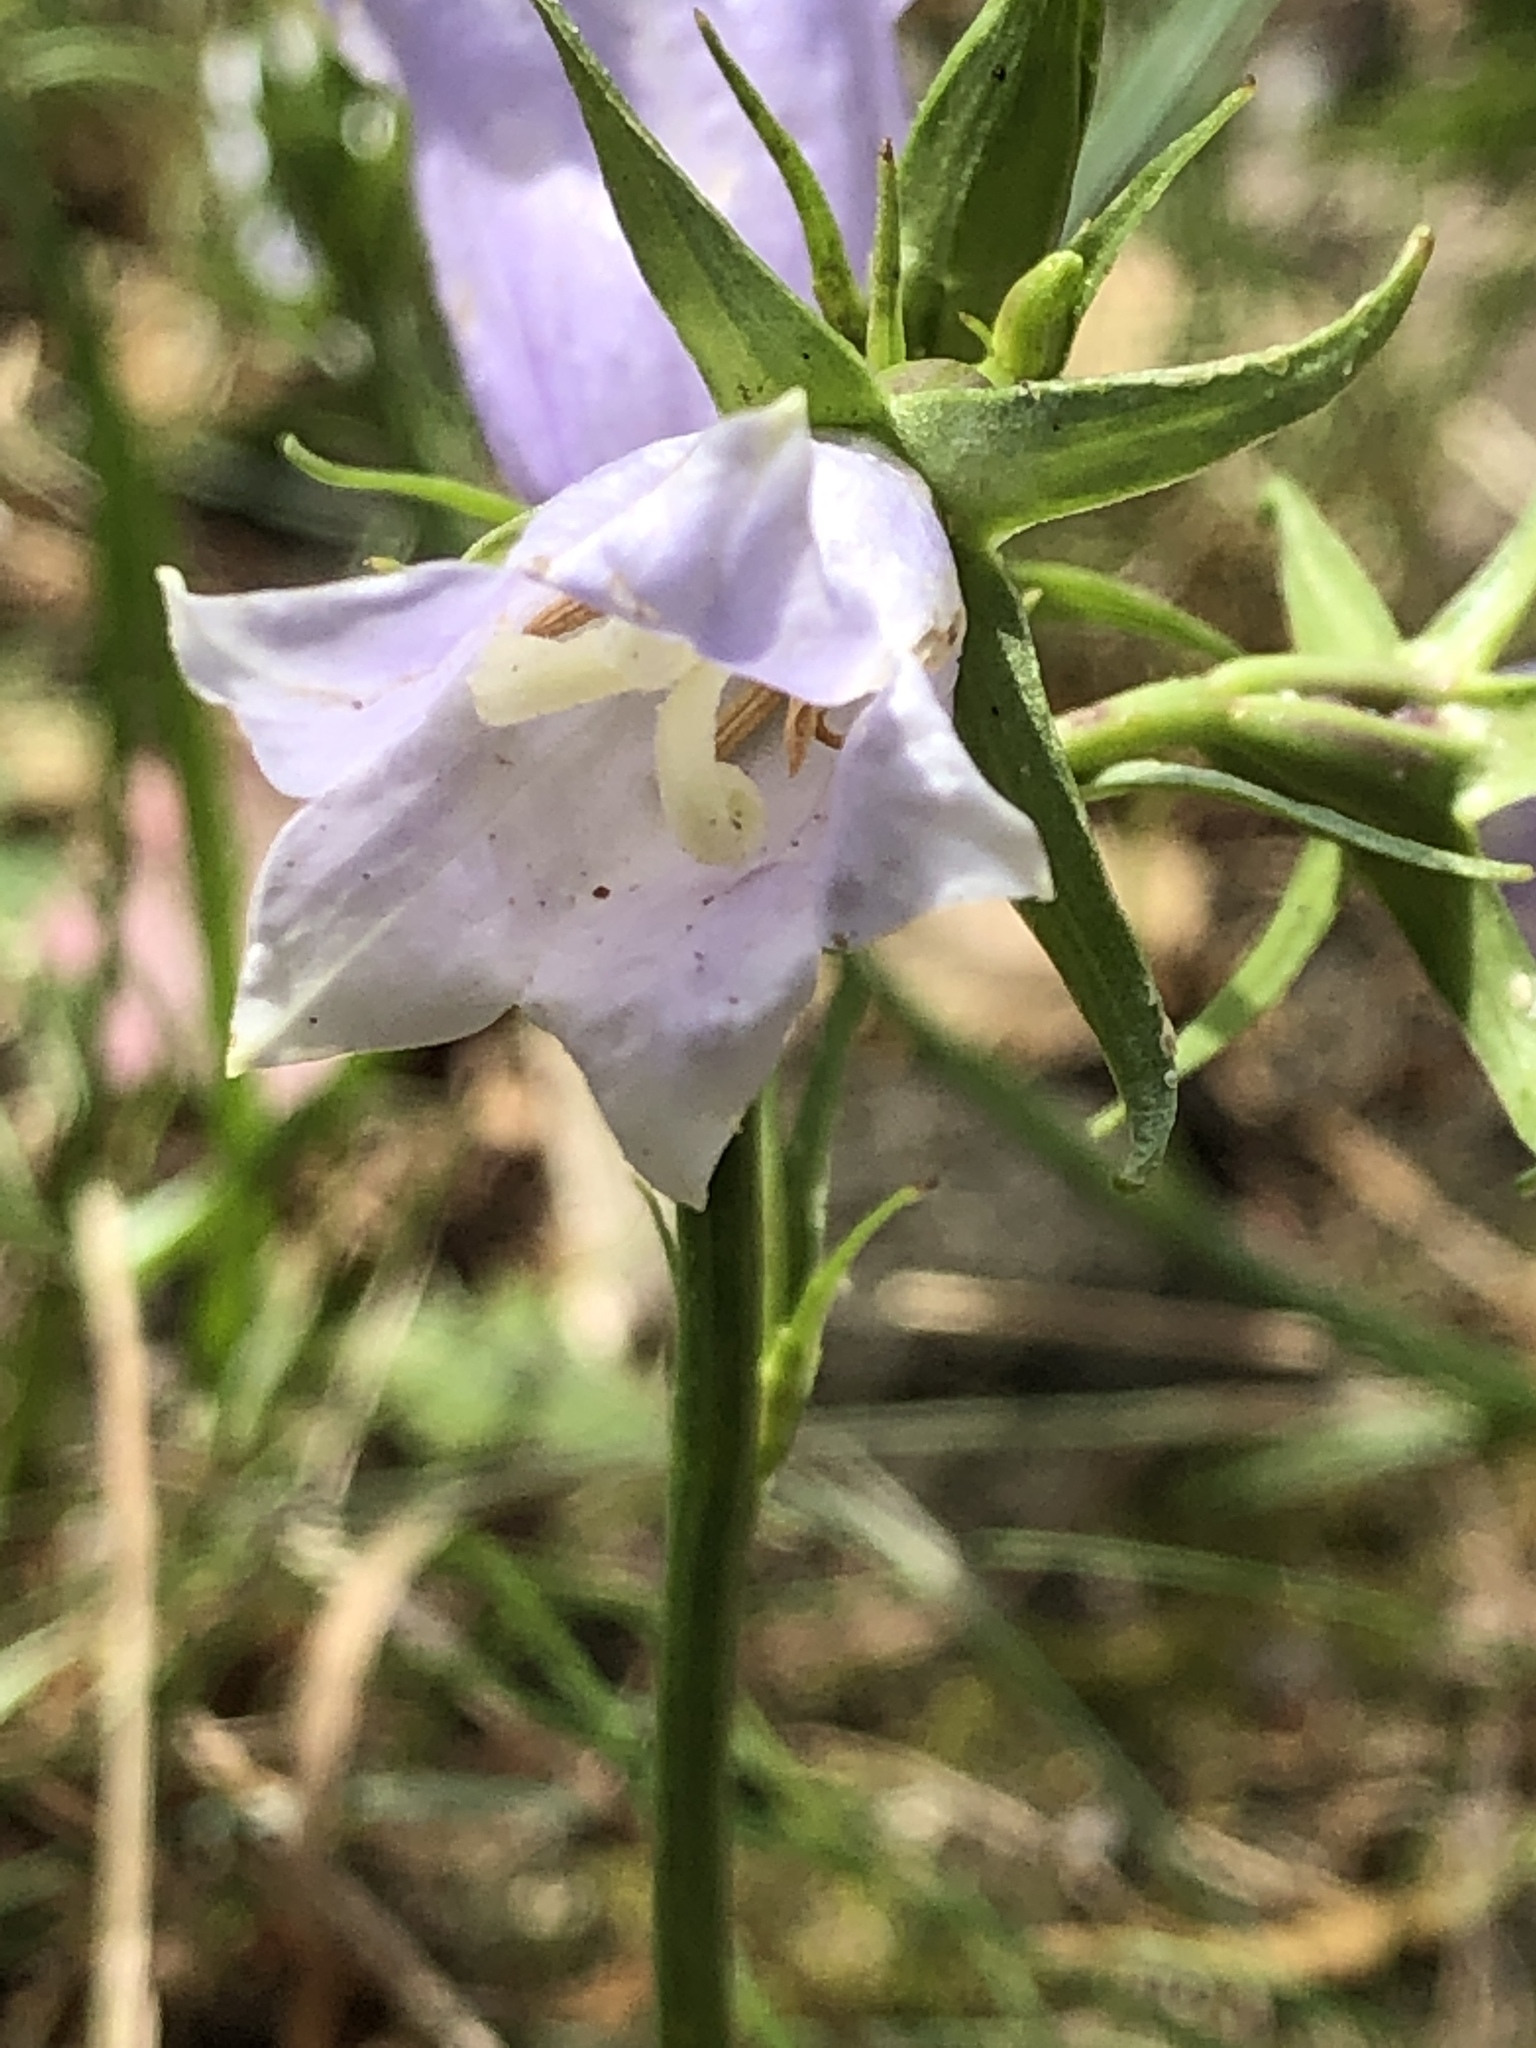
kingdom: Plantae
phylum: Tracheophyta
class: Magnoliopsida
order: Asterales
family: Campanulaceae
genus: Campanula
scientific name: Campanula persicifolia
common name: Peach-leaved bellflower
